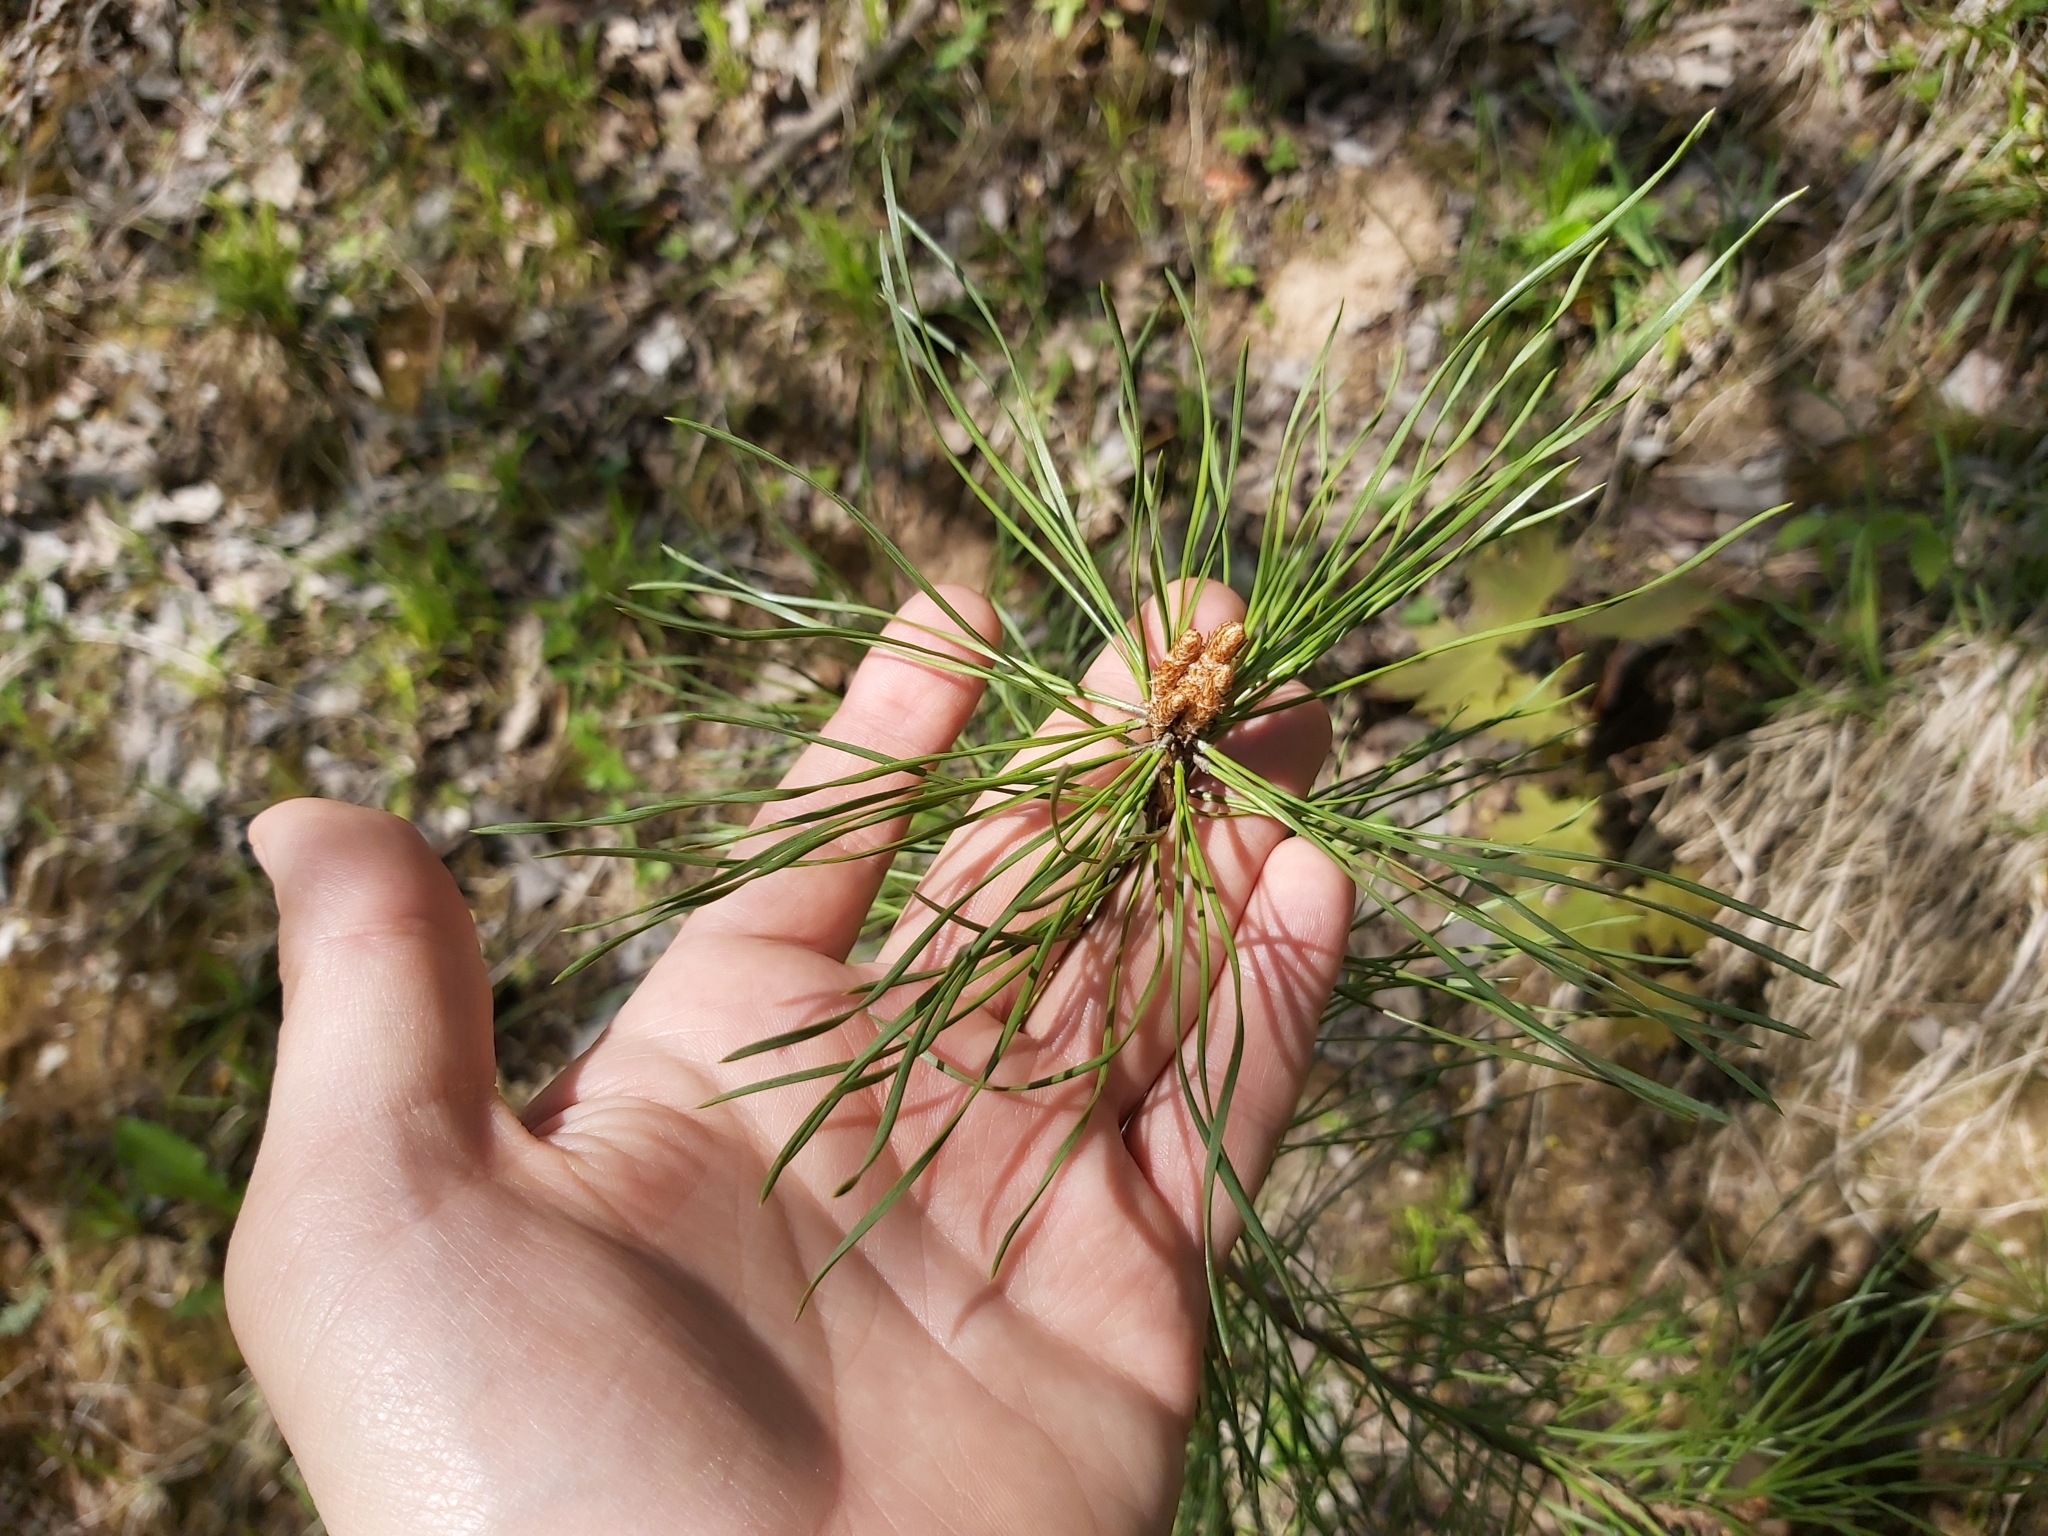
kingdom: Plantae
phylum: Tracheophyta
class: Pinopsida
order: Pinales
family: Pinaceae
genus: Pinus
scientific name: Pinus sylvestris
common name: Scots pine
